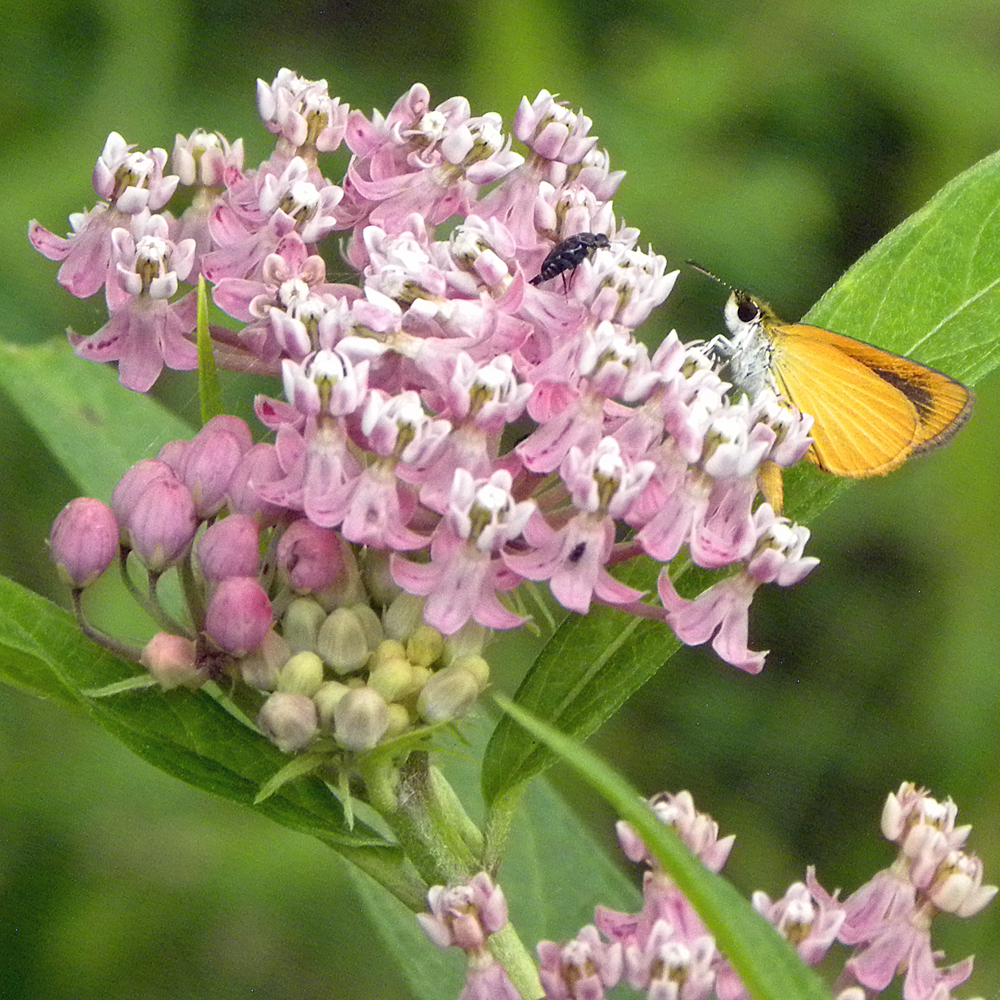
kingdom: Animalia
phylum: Arthropoda
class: Insecta
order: Lepidoptera
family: Hesperiidae
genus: Ancyloxypha
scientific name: Ancyloxypha numitor
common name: Least skipper
